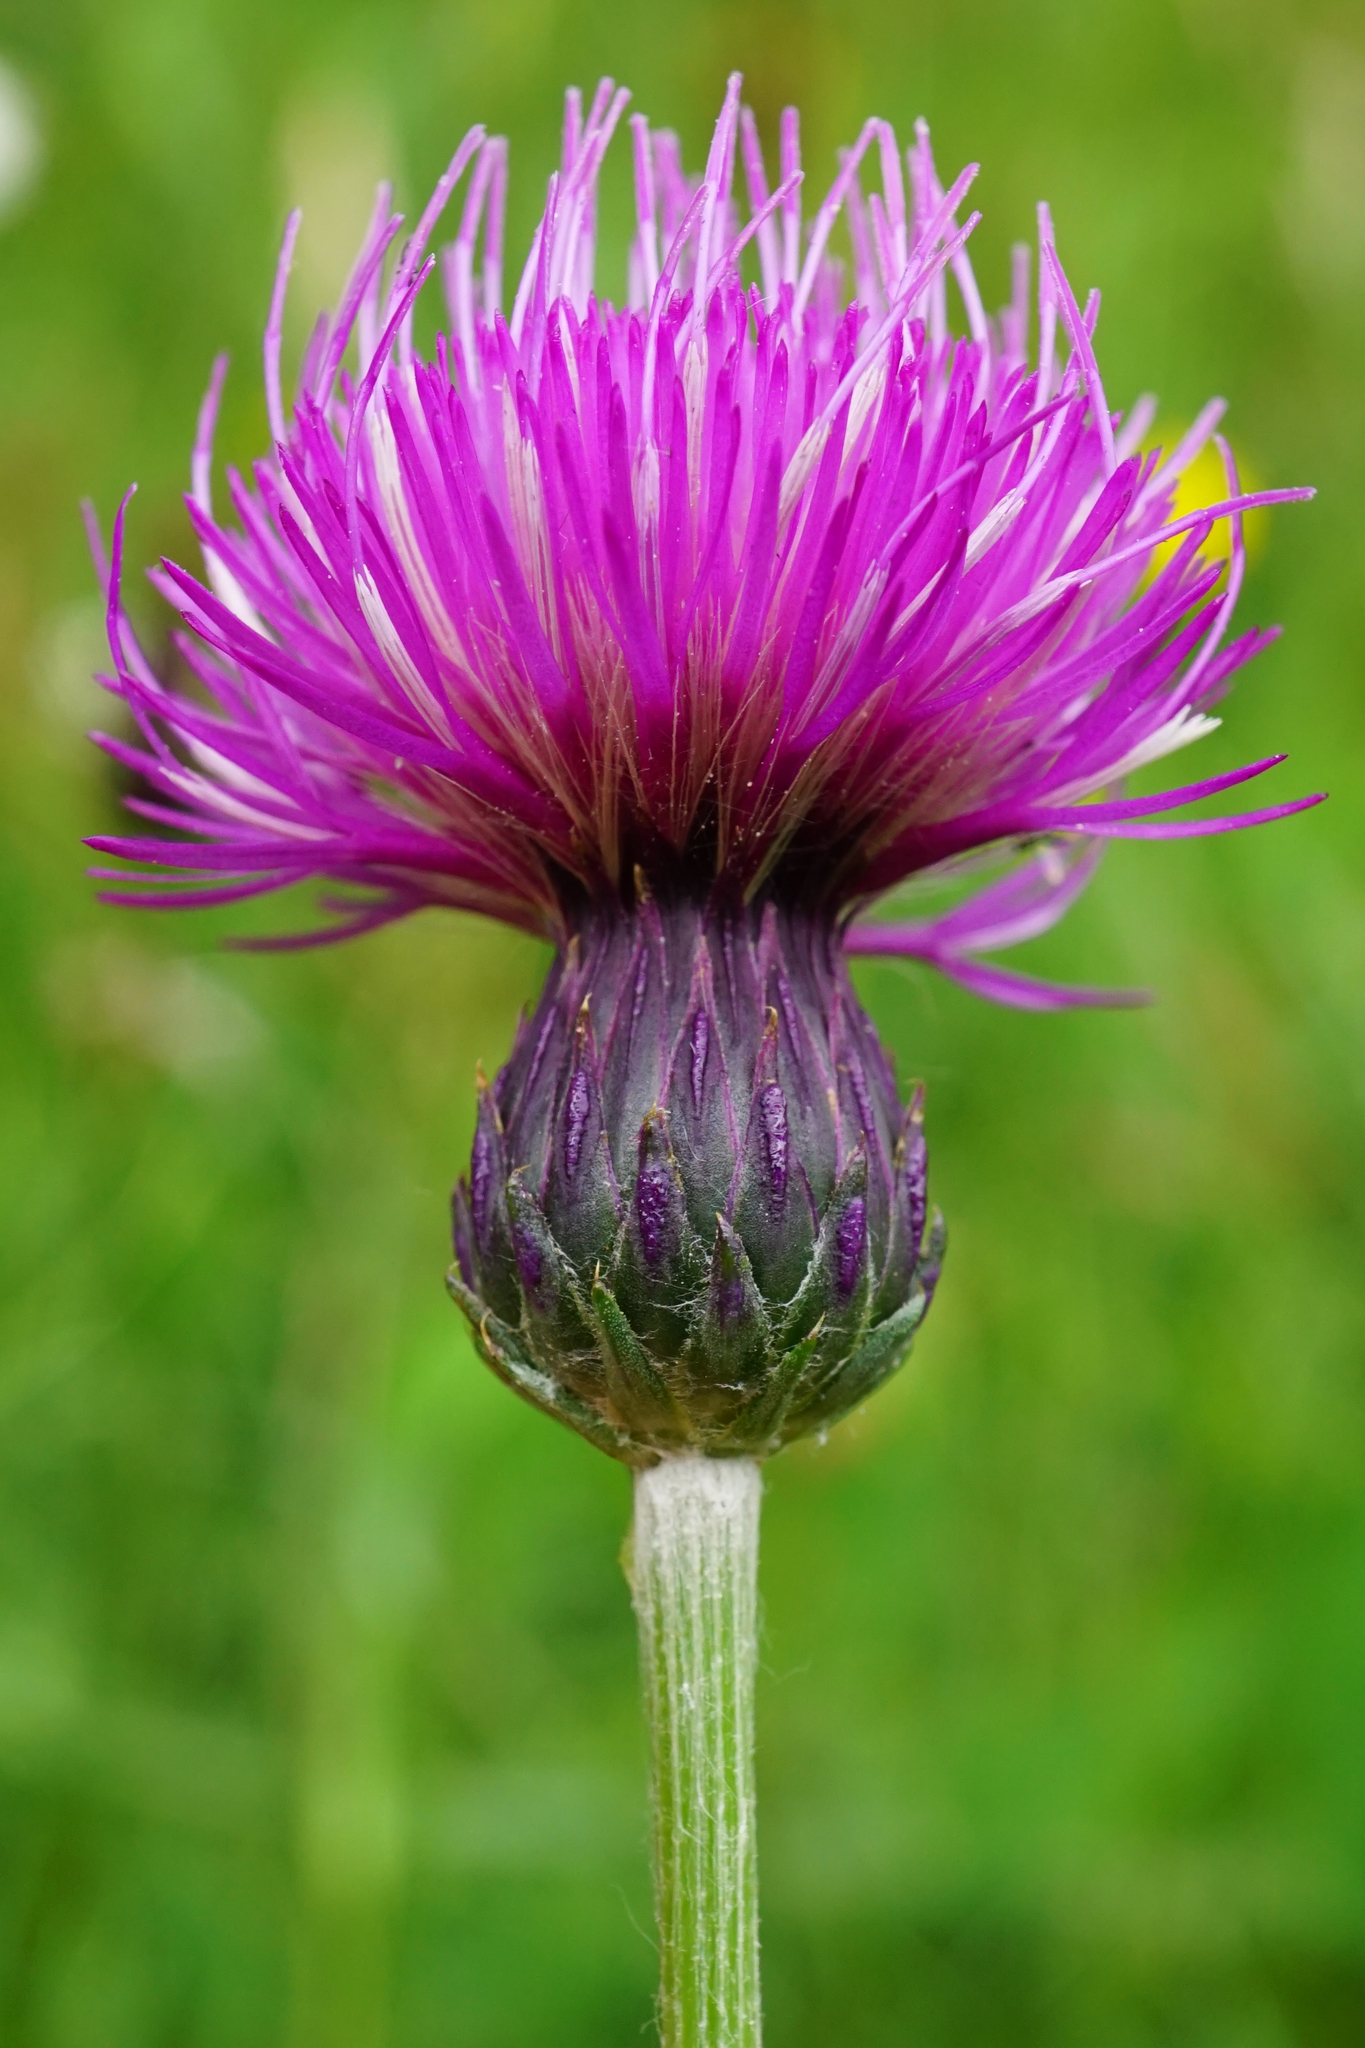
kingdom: Plantae
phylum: Tracheophyta
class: Magnoliopsida
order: Asterales
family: Asteraceae
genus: Cirsium
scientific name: Cirsium pannonicum
